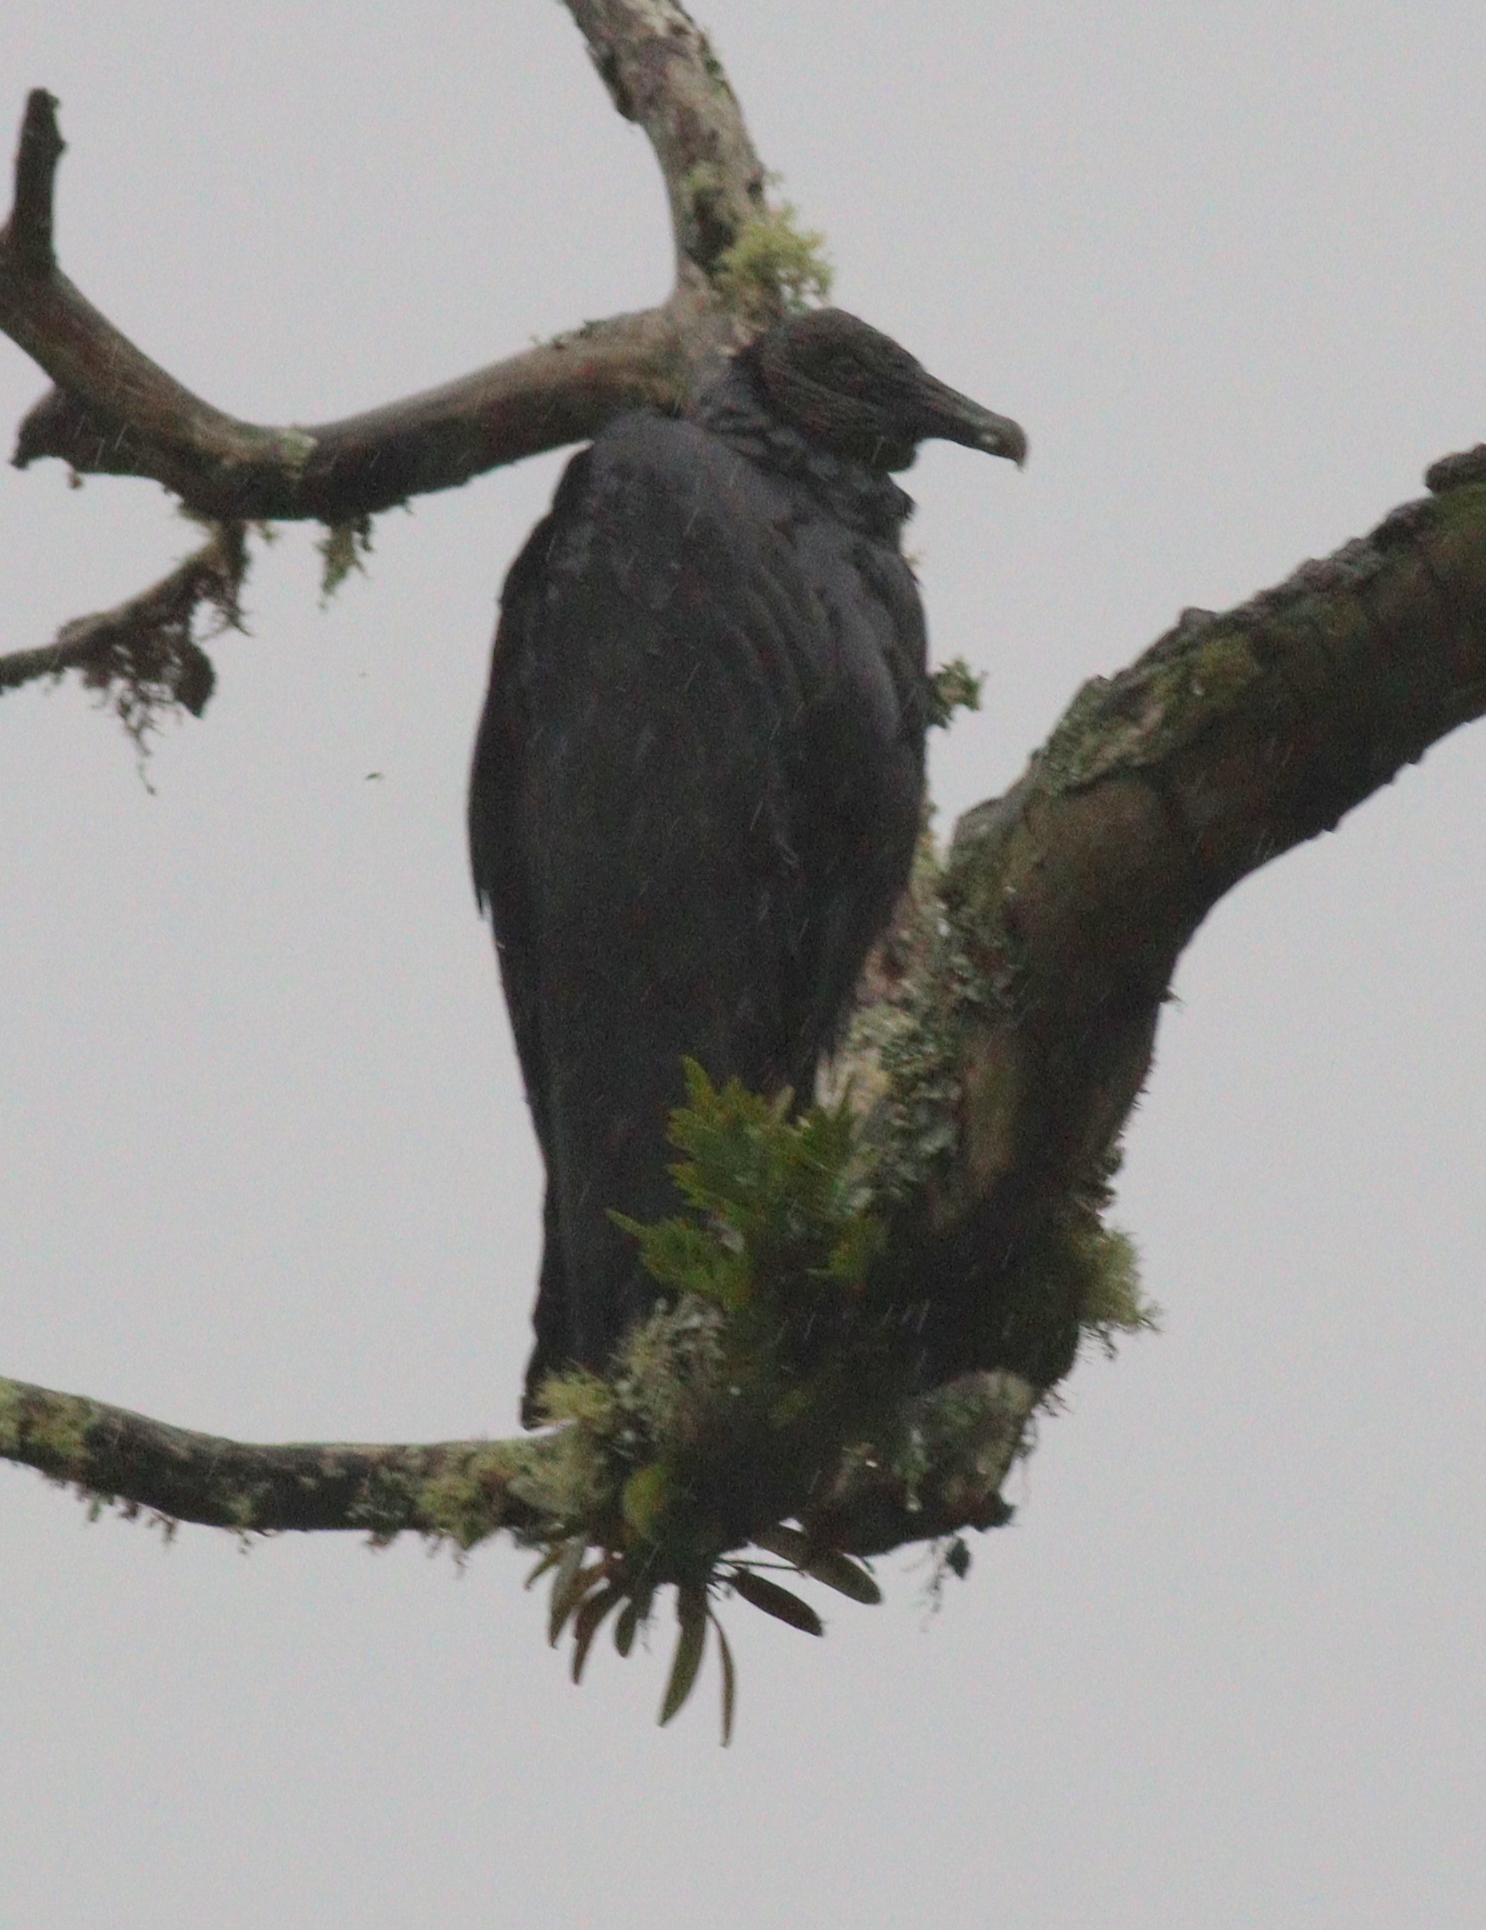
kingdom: Animalia
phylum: Chordata
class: Aves
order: Accipitriformes
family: Cathartidae
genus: Coragyps
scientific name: Coragyps atratus
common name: Black vulture
